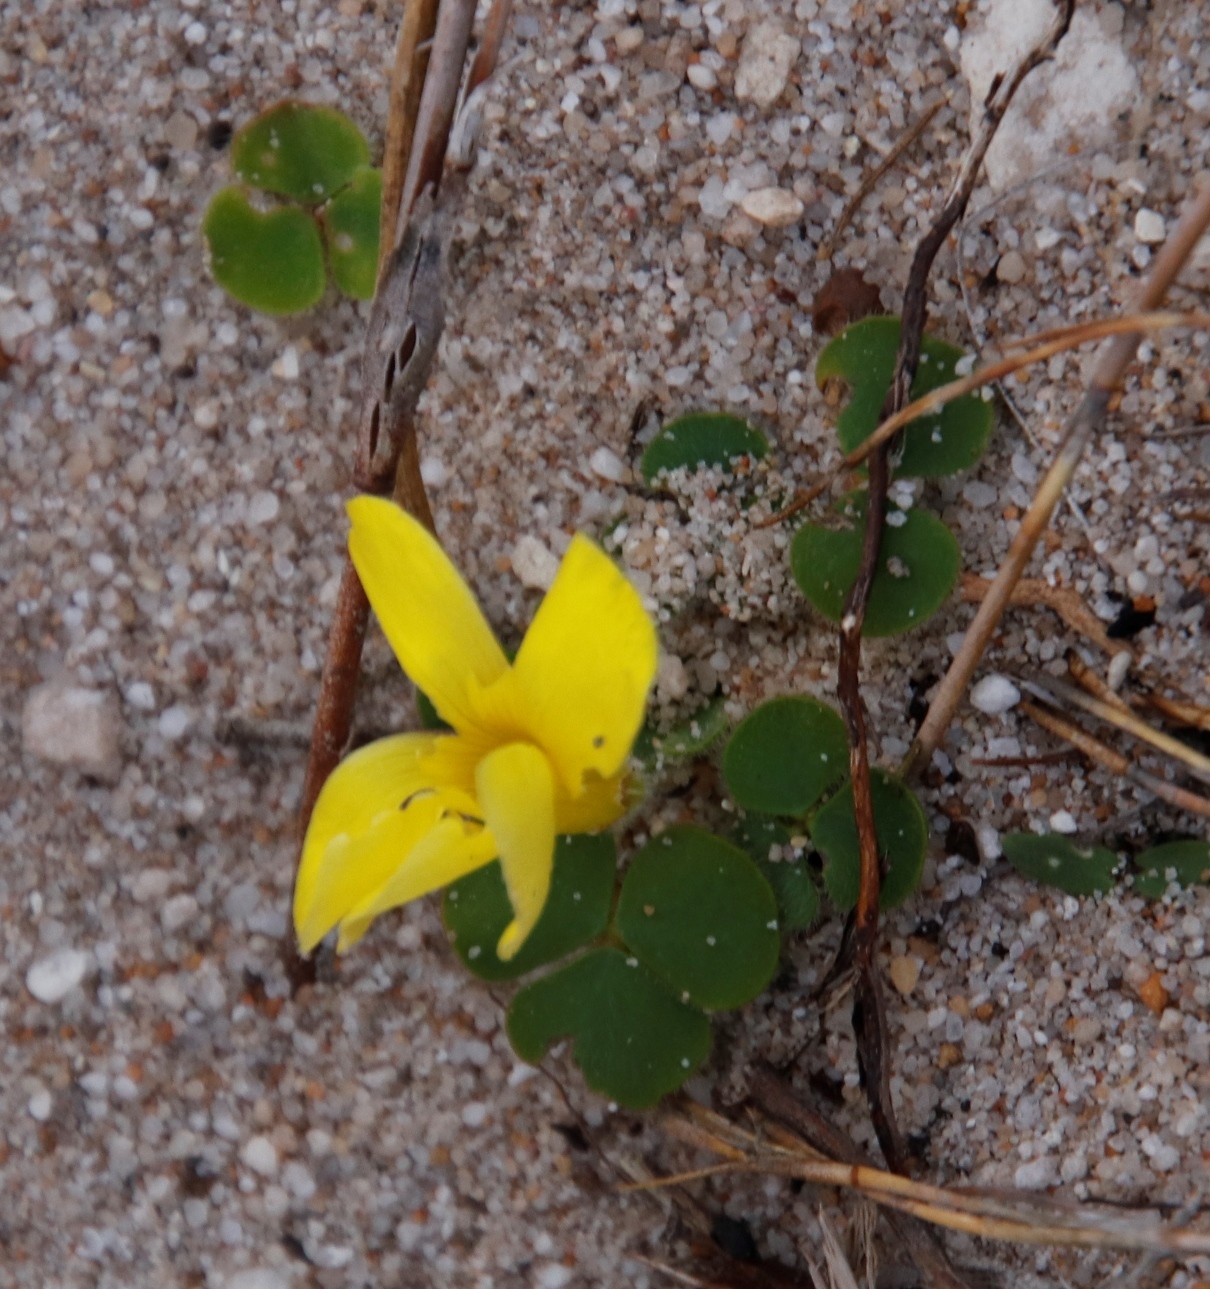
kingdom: Plantae
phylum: Tracheophyta
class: Magnoliopsida
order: Oxalidales
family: Oxalidaceae
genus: Oxalis
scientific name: Oxalis luteola
